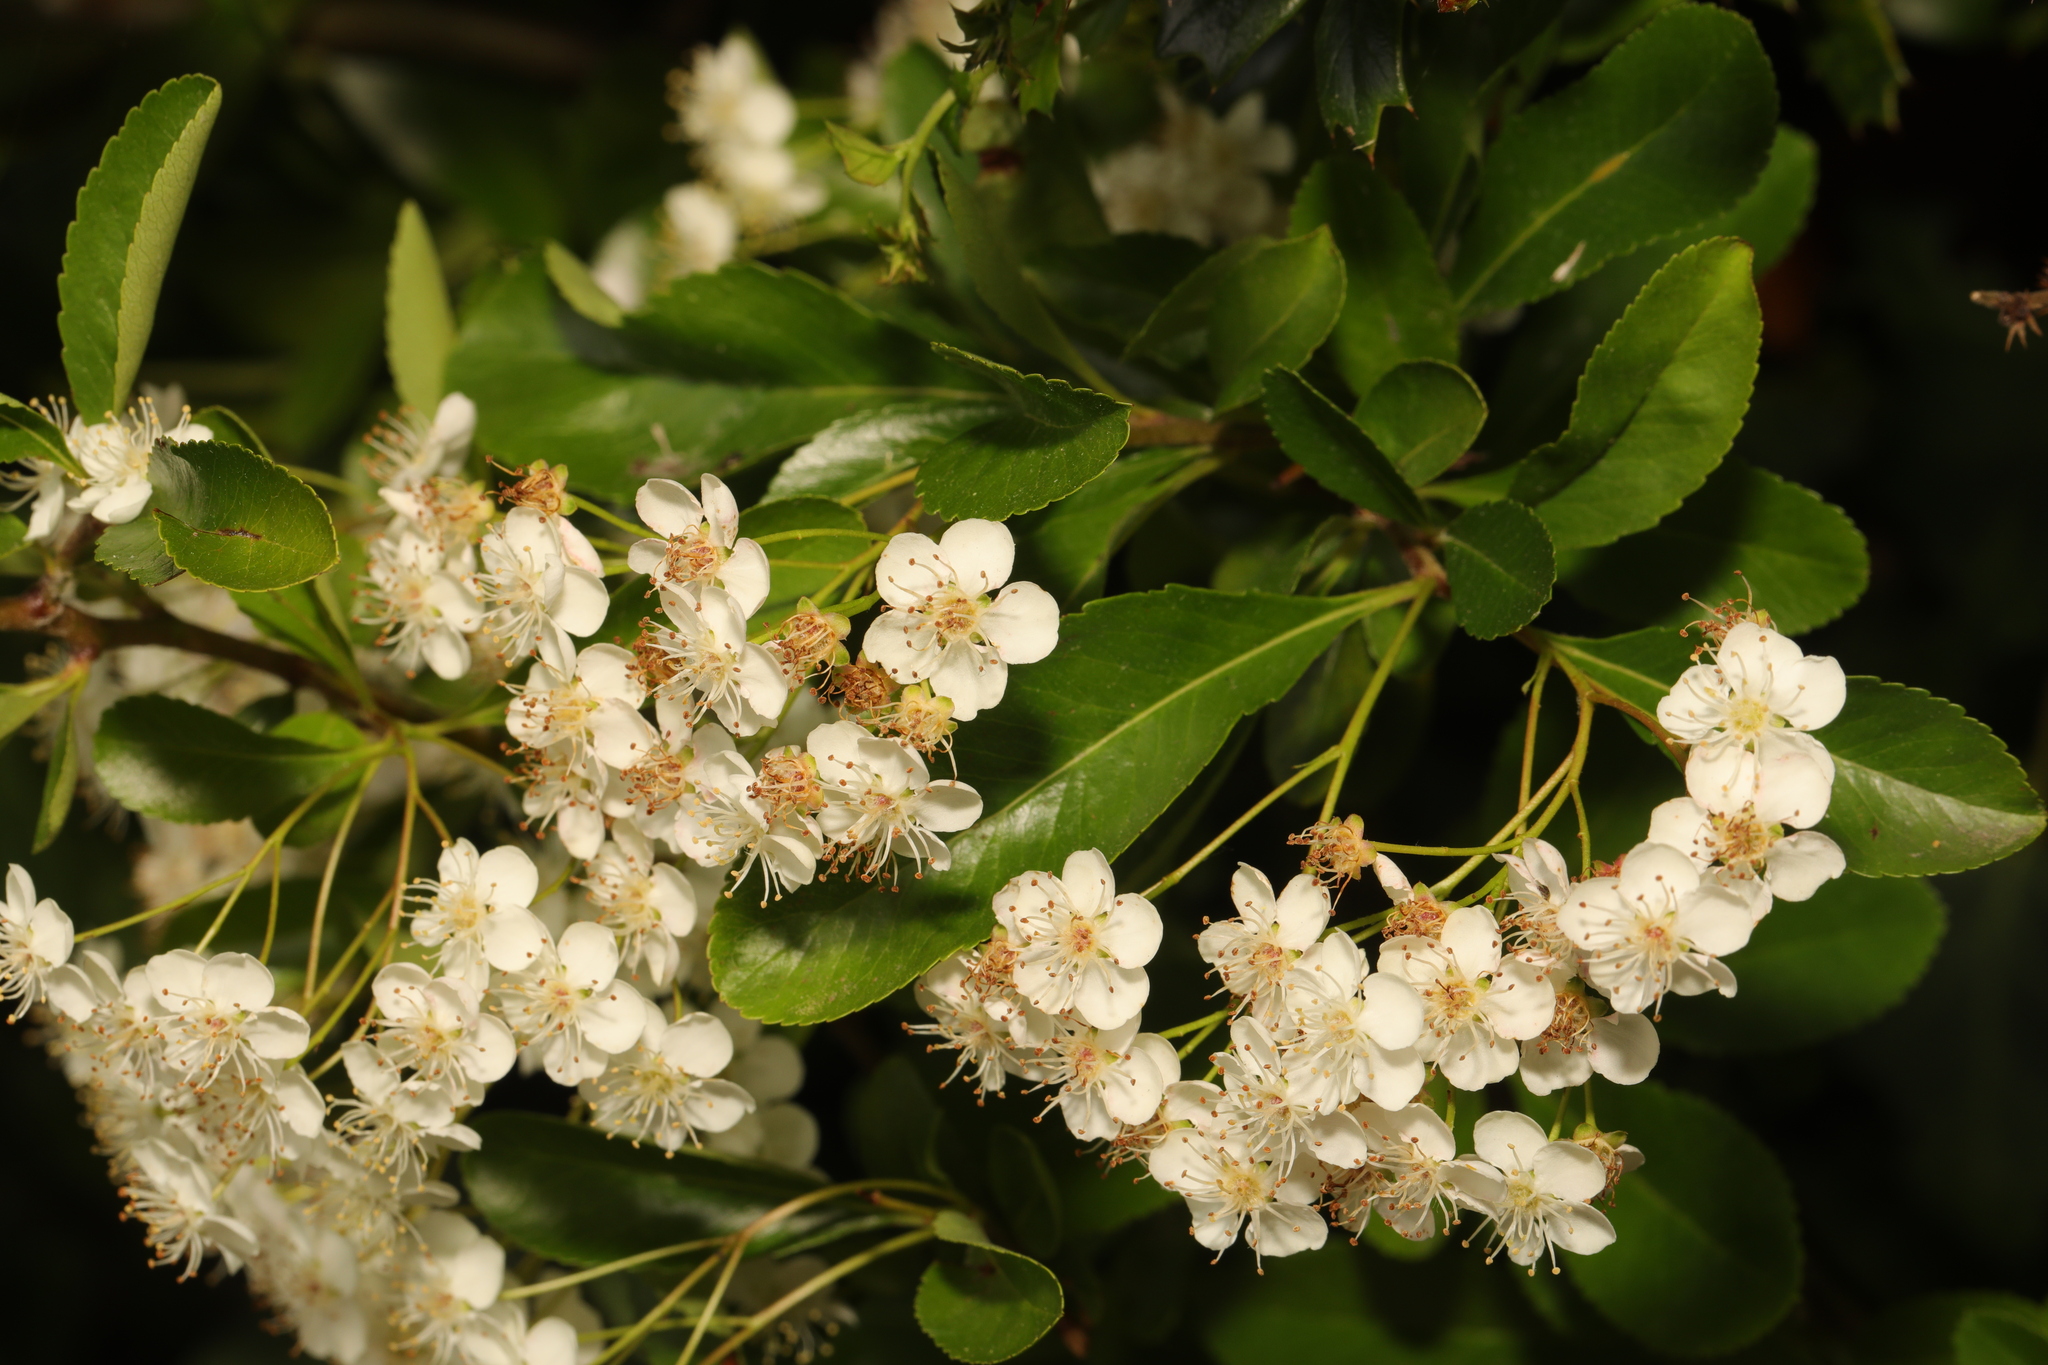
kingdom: Plantae
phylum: Tracheophyta
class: Magnoliopsida
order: Rosales
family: Rosaceae
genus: Pyracantha
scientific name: Pyracantha coccinea
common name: Firethorn
